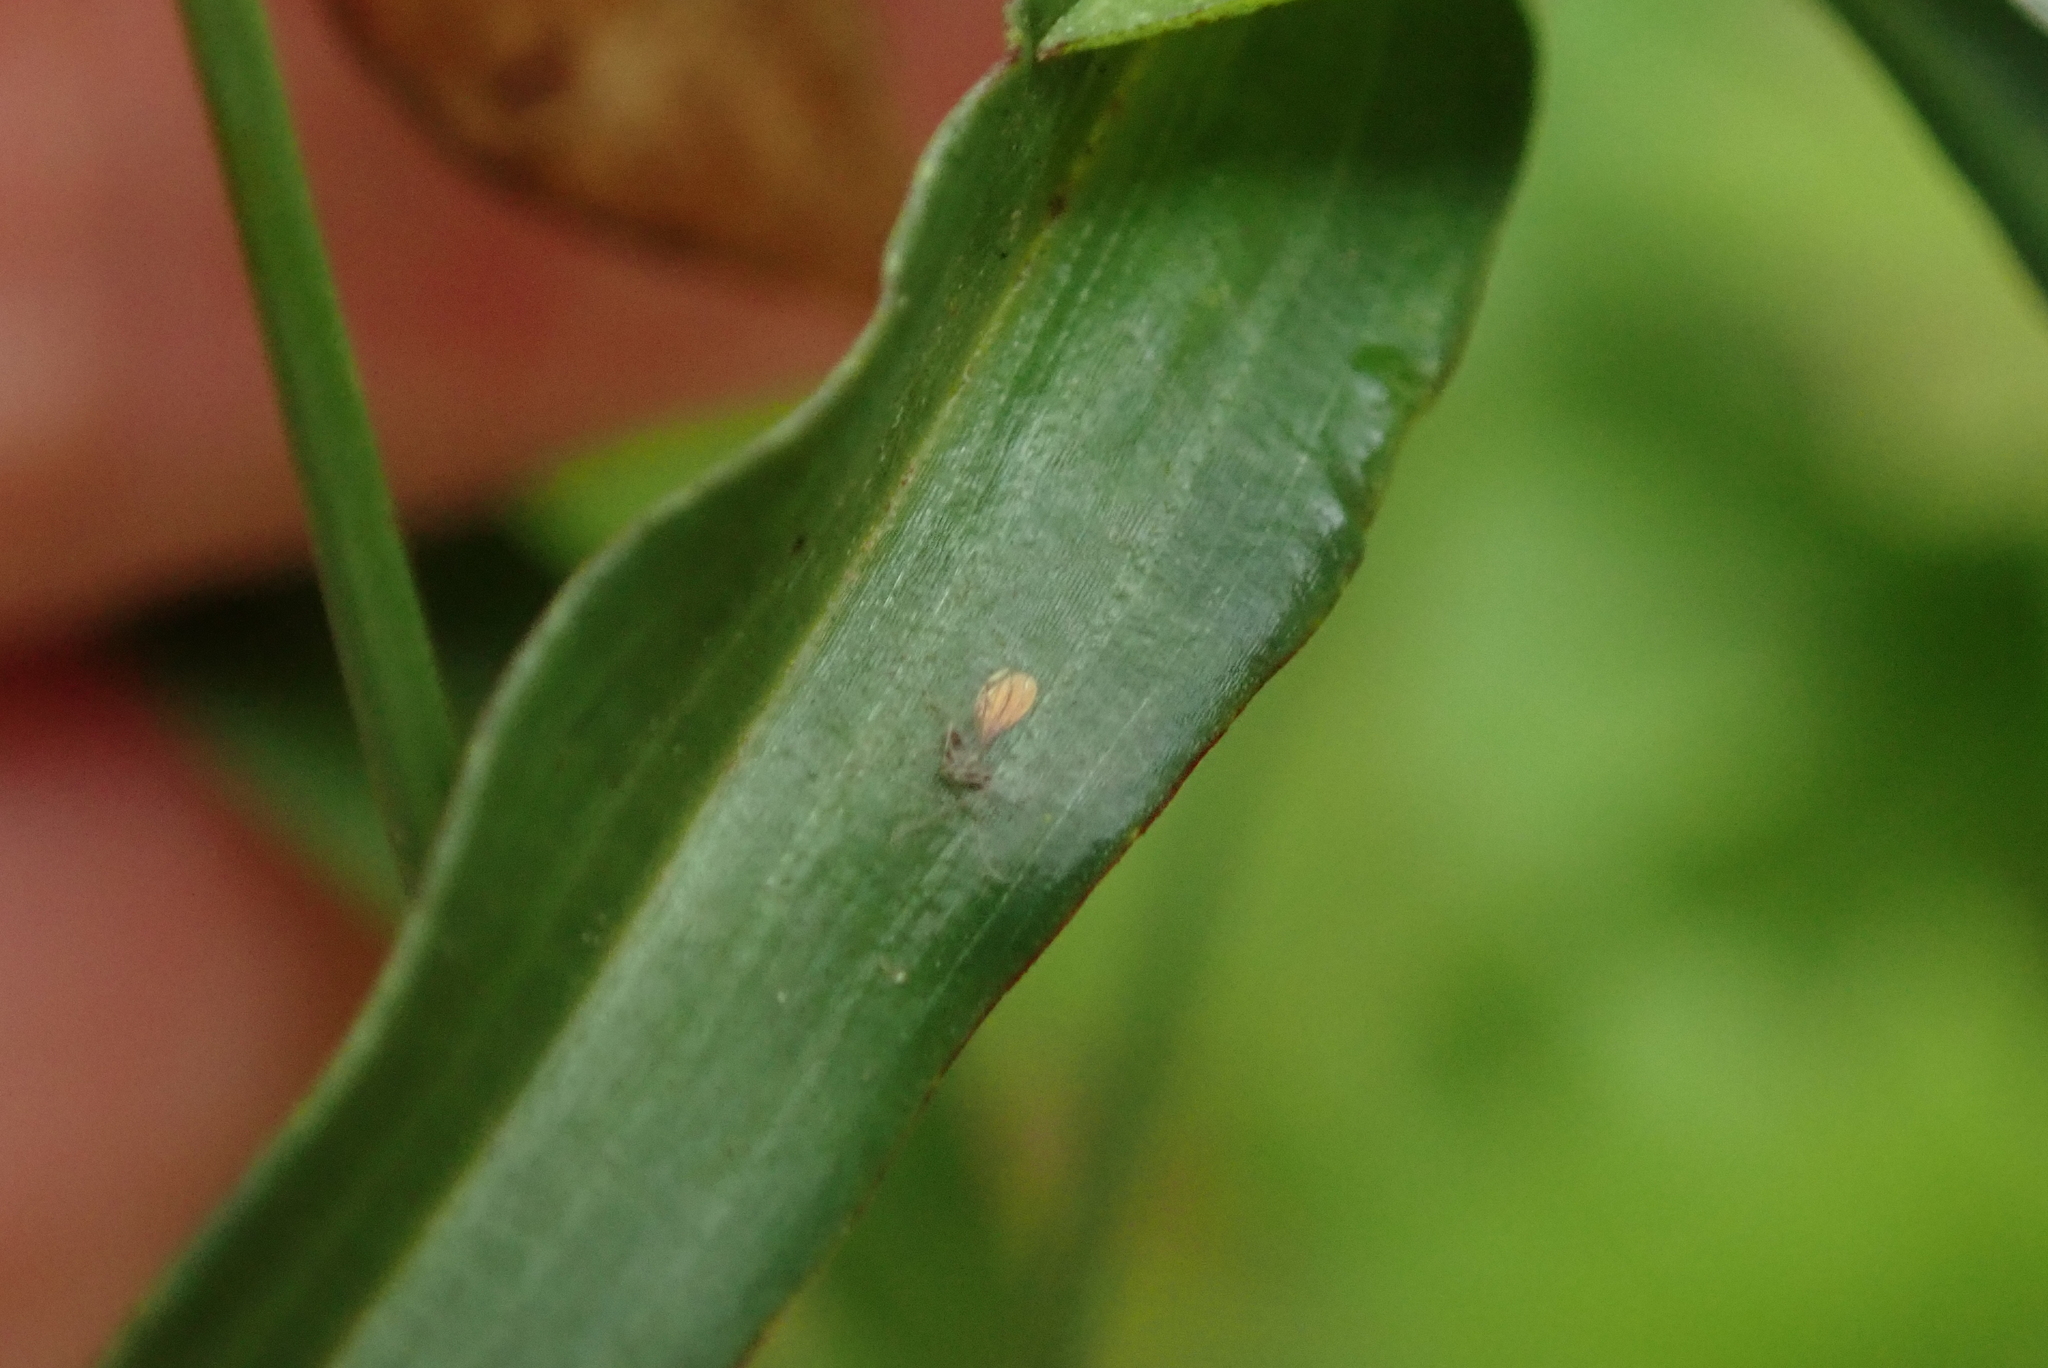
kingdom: Plantae
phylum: Tracheophyta
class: Liliopsida
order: Commelinales
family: Commelinaceae
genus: Commelina
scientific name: Commelina eckloniana
